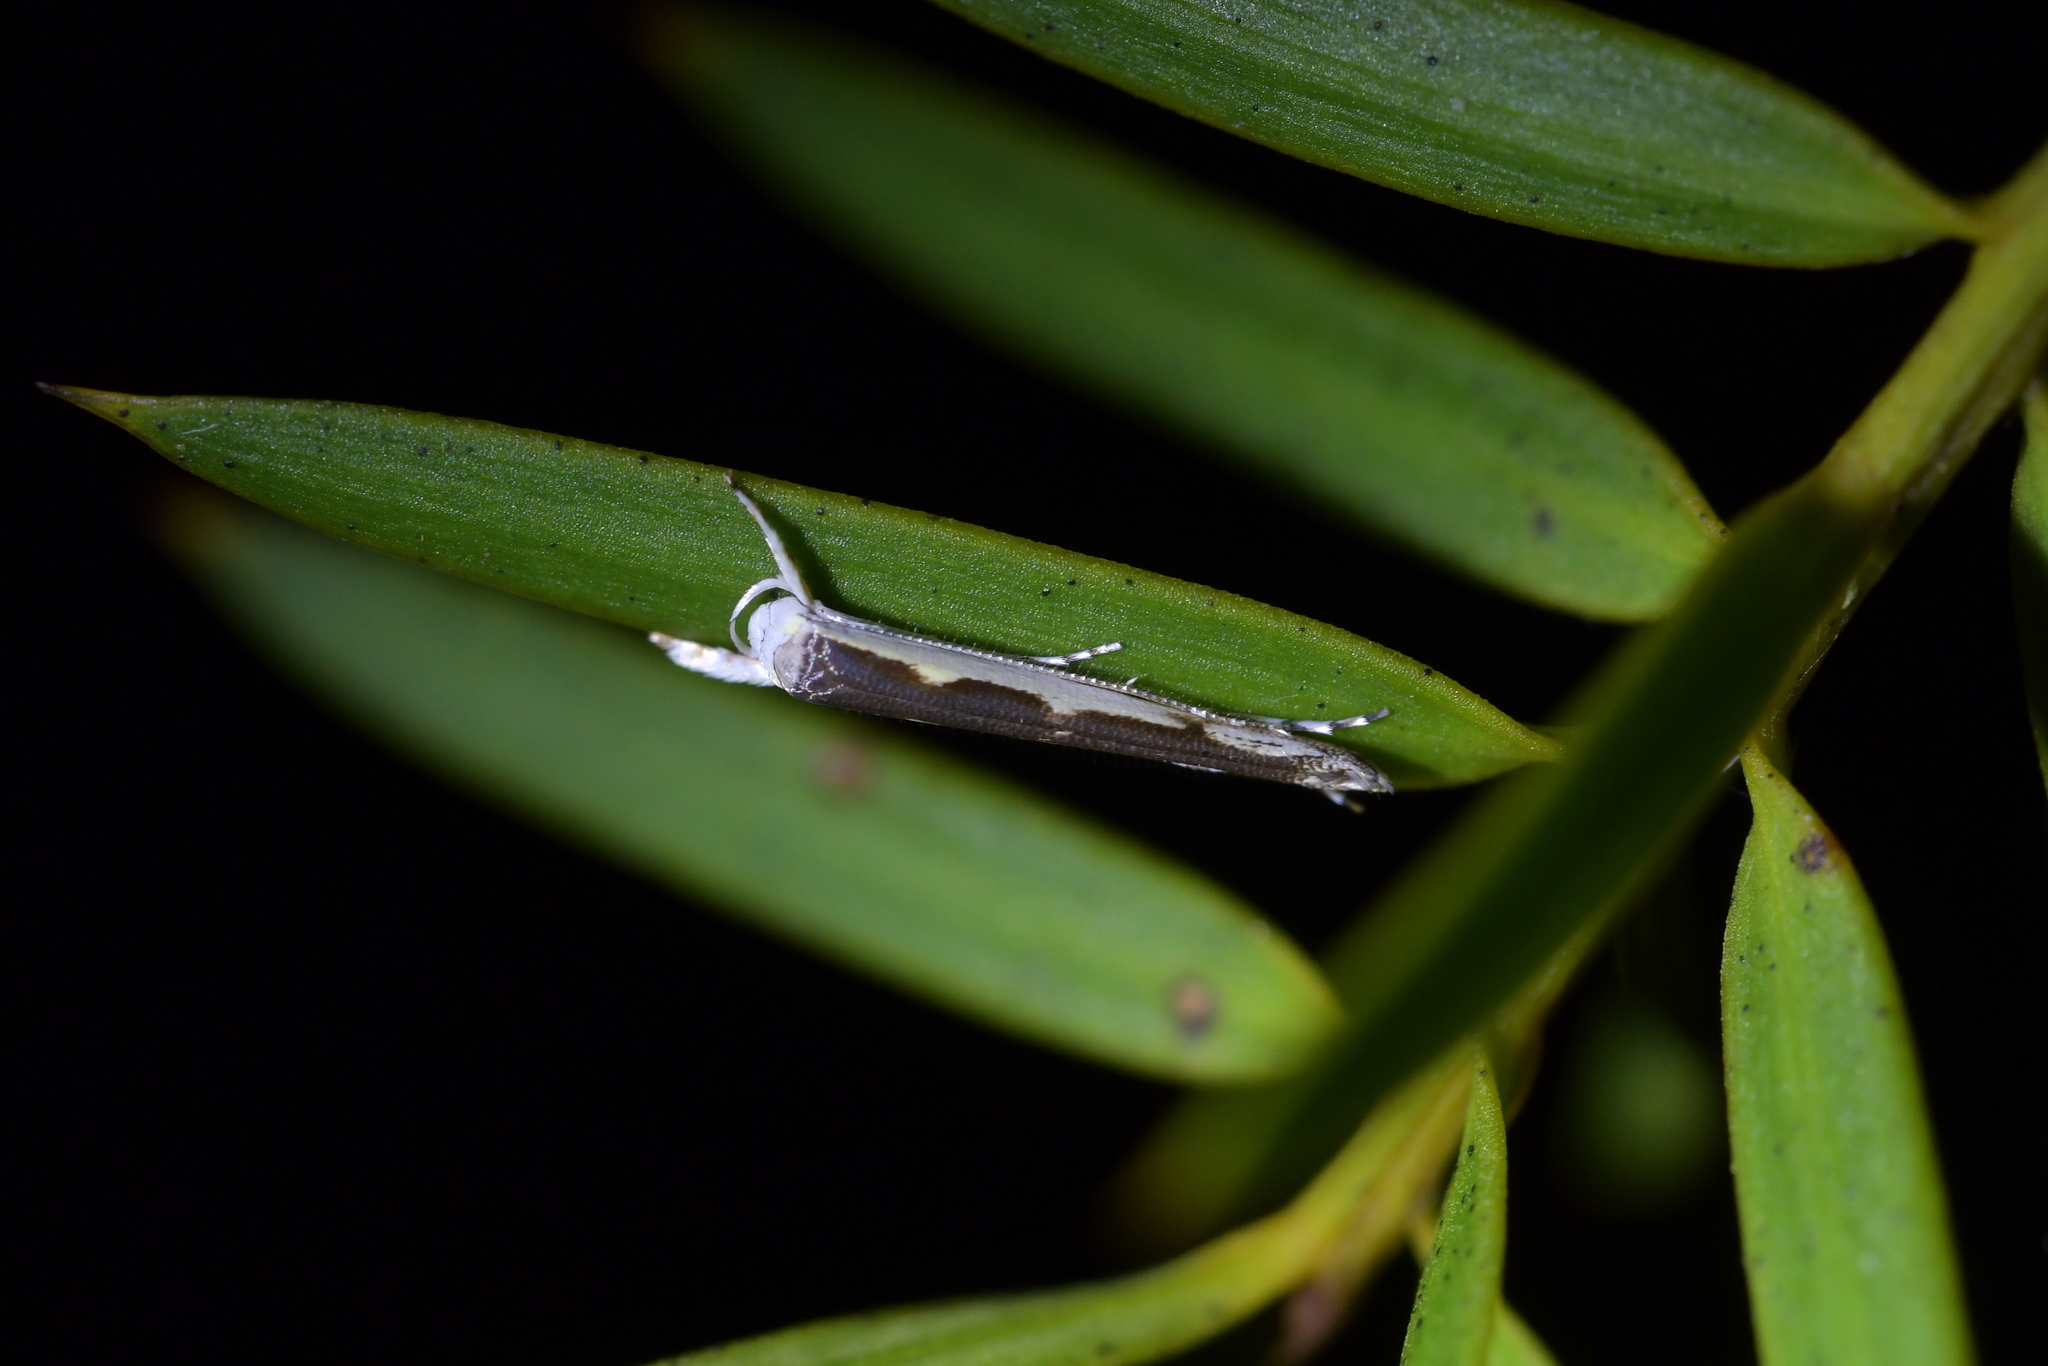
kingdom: Animalia
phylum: Arthropoda
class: Insecta
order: Lepidoptera
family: Roeslerstammiidae
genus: Vanicela
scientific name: Vanicela disjunctella
